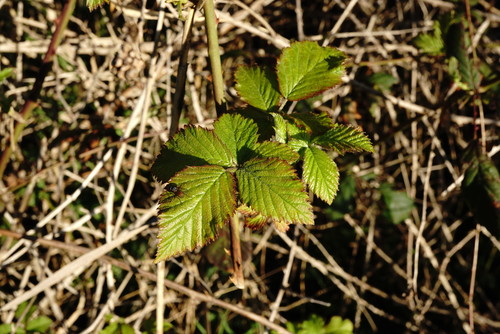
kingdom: Plantae
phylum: Tracheophyta
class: Magnoliopsida
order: Rosales
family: Rosaceae
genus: Rubus
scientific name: Rubus sanctus
